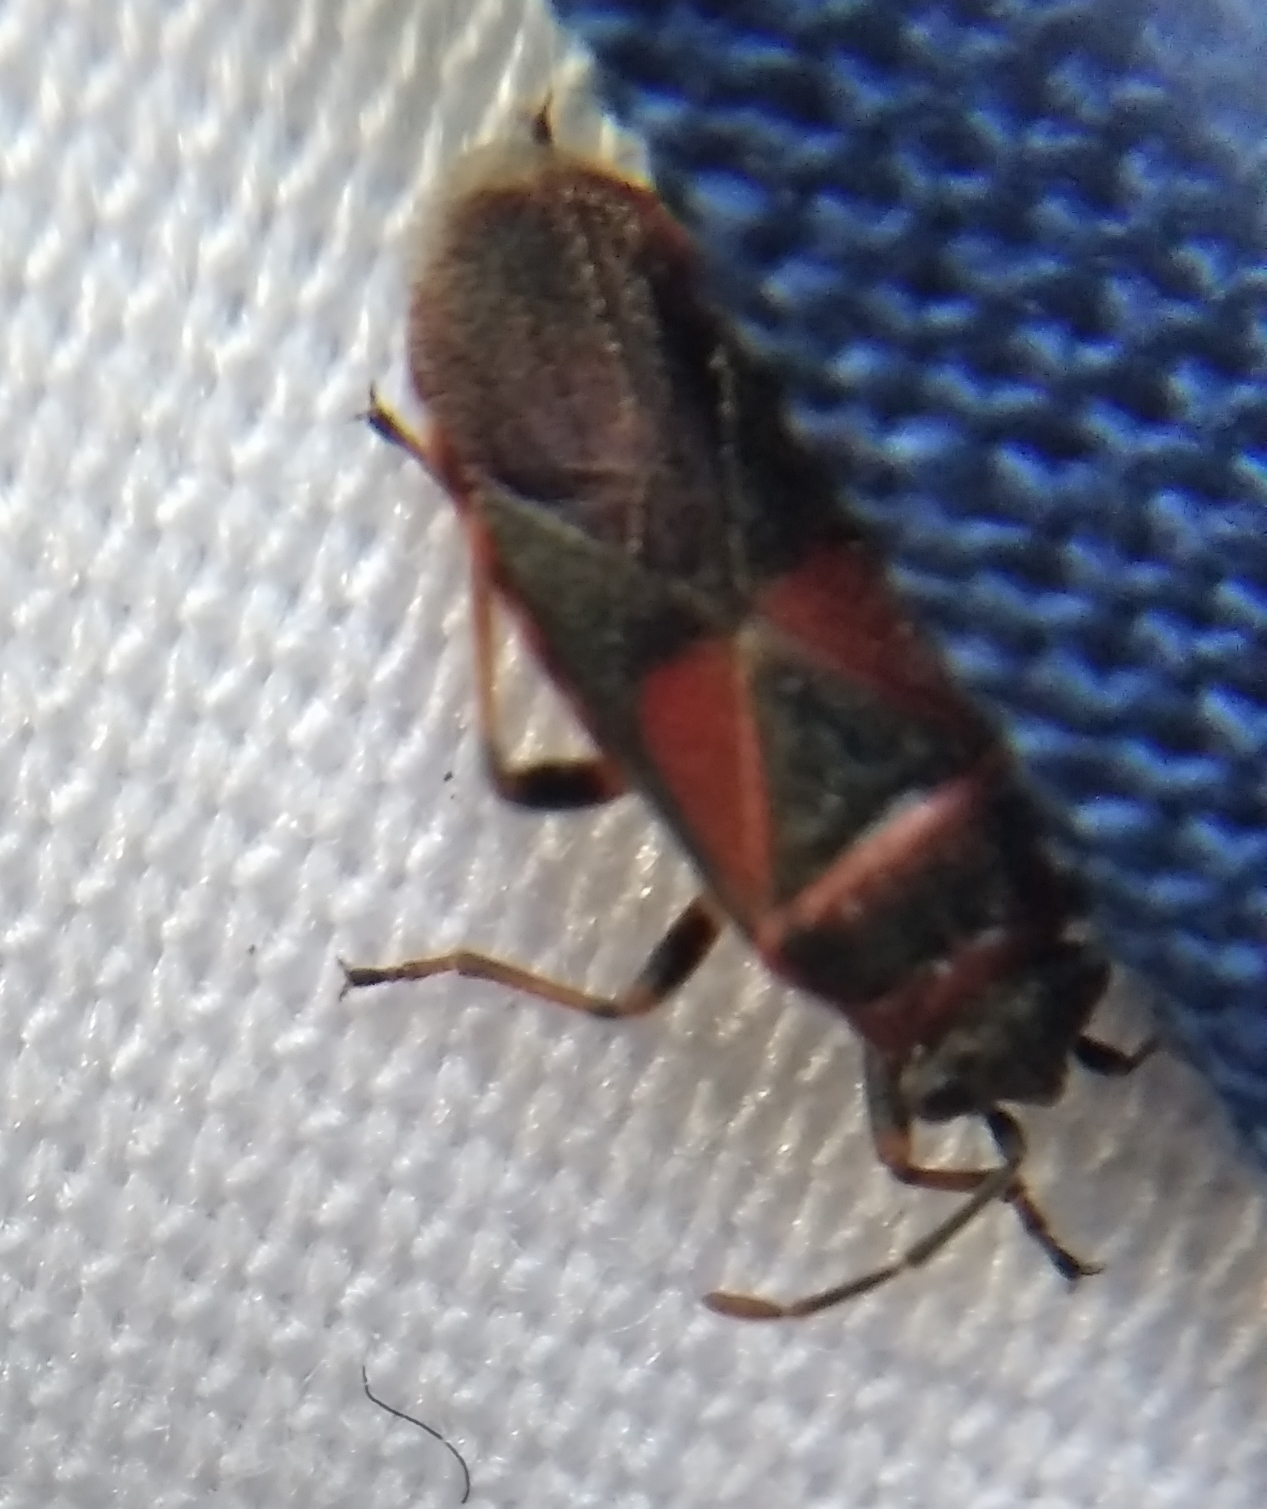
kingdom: Animalia
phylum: Arthropoda
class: Insecta
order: Hemiptera
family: Lygaeidae
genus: Arocatus
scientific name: Arocatus melanocephalus
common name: Lygaeid bug
